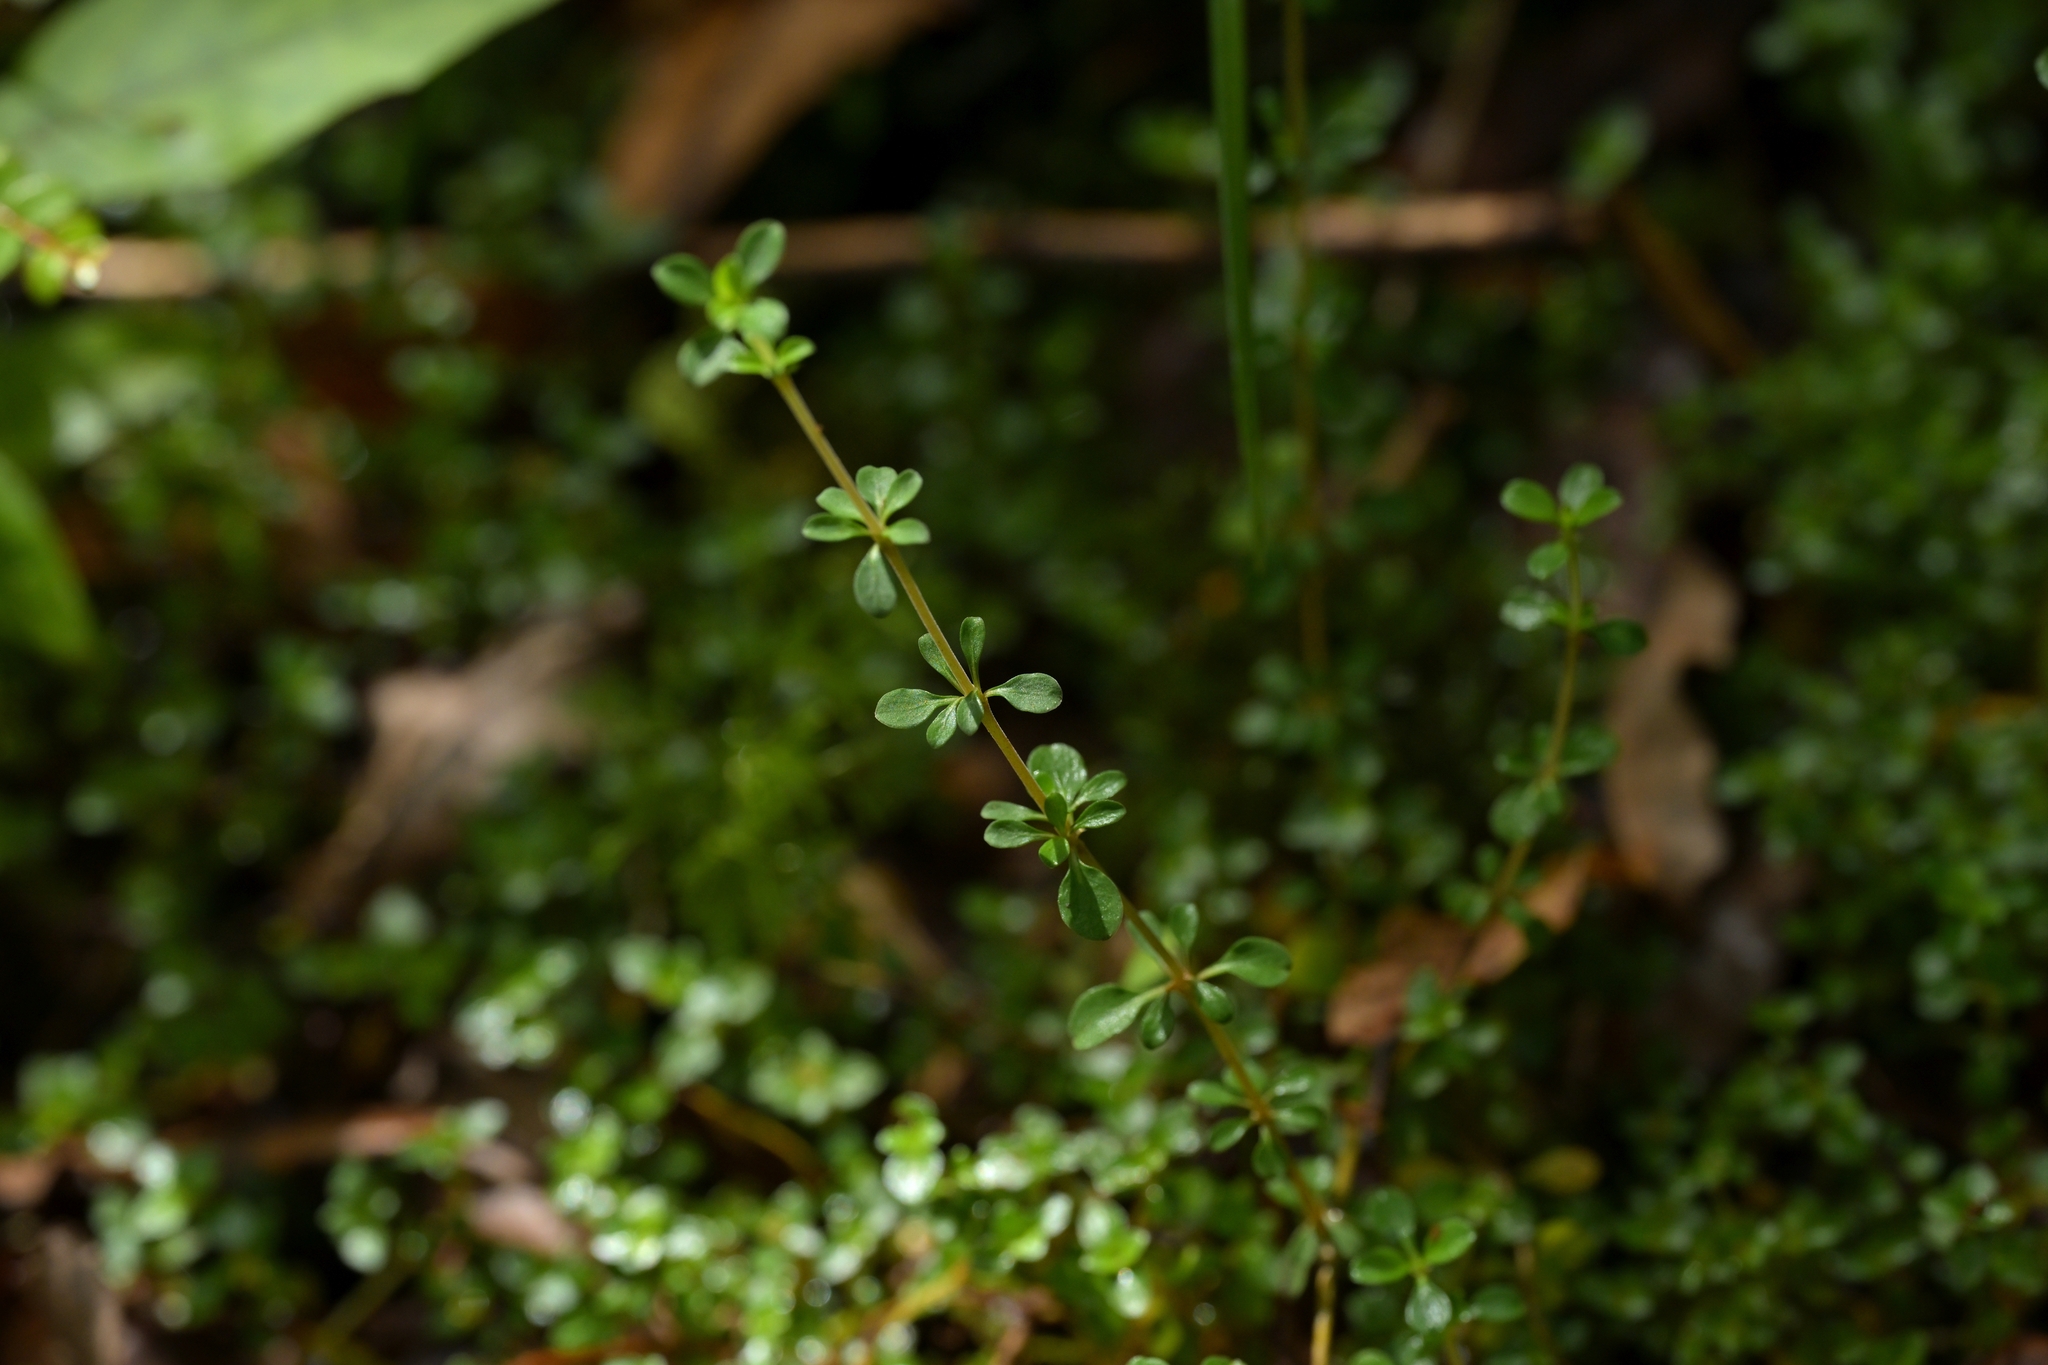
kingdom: Plantae
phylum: Tracheophyta
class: Magnoliopsida
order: Gentianales
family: Rubiaceae
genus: Coprosma
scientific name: Coprosma depressa
